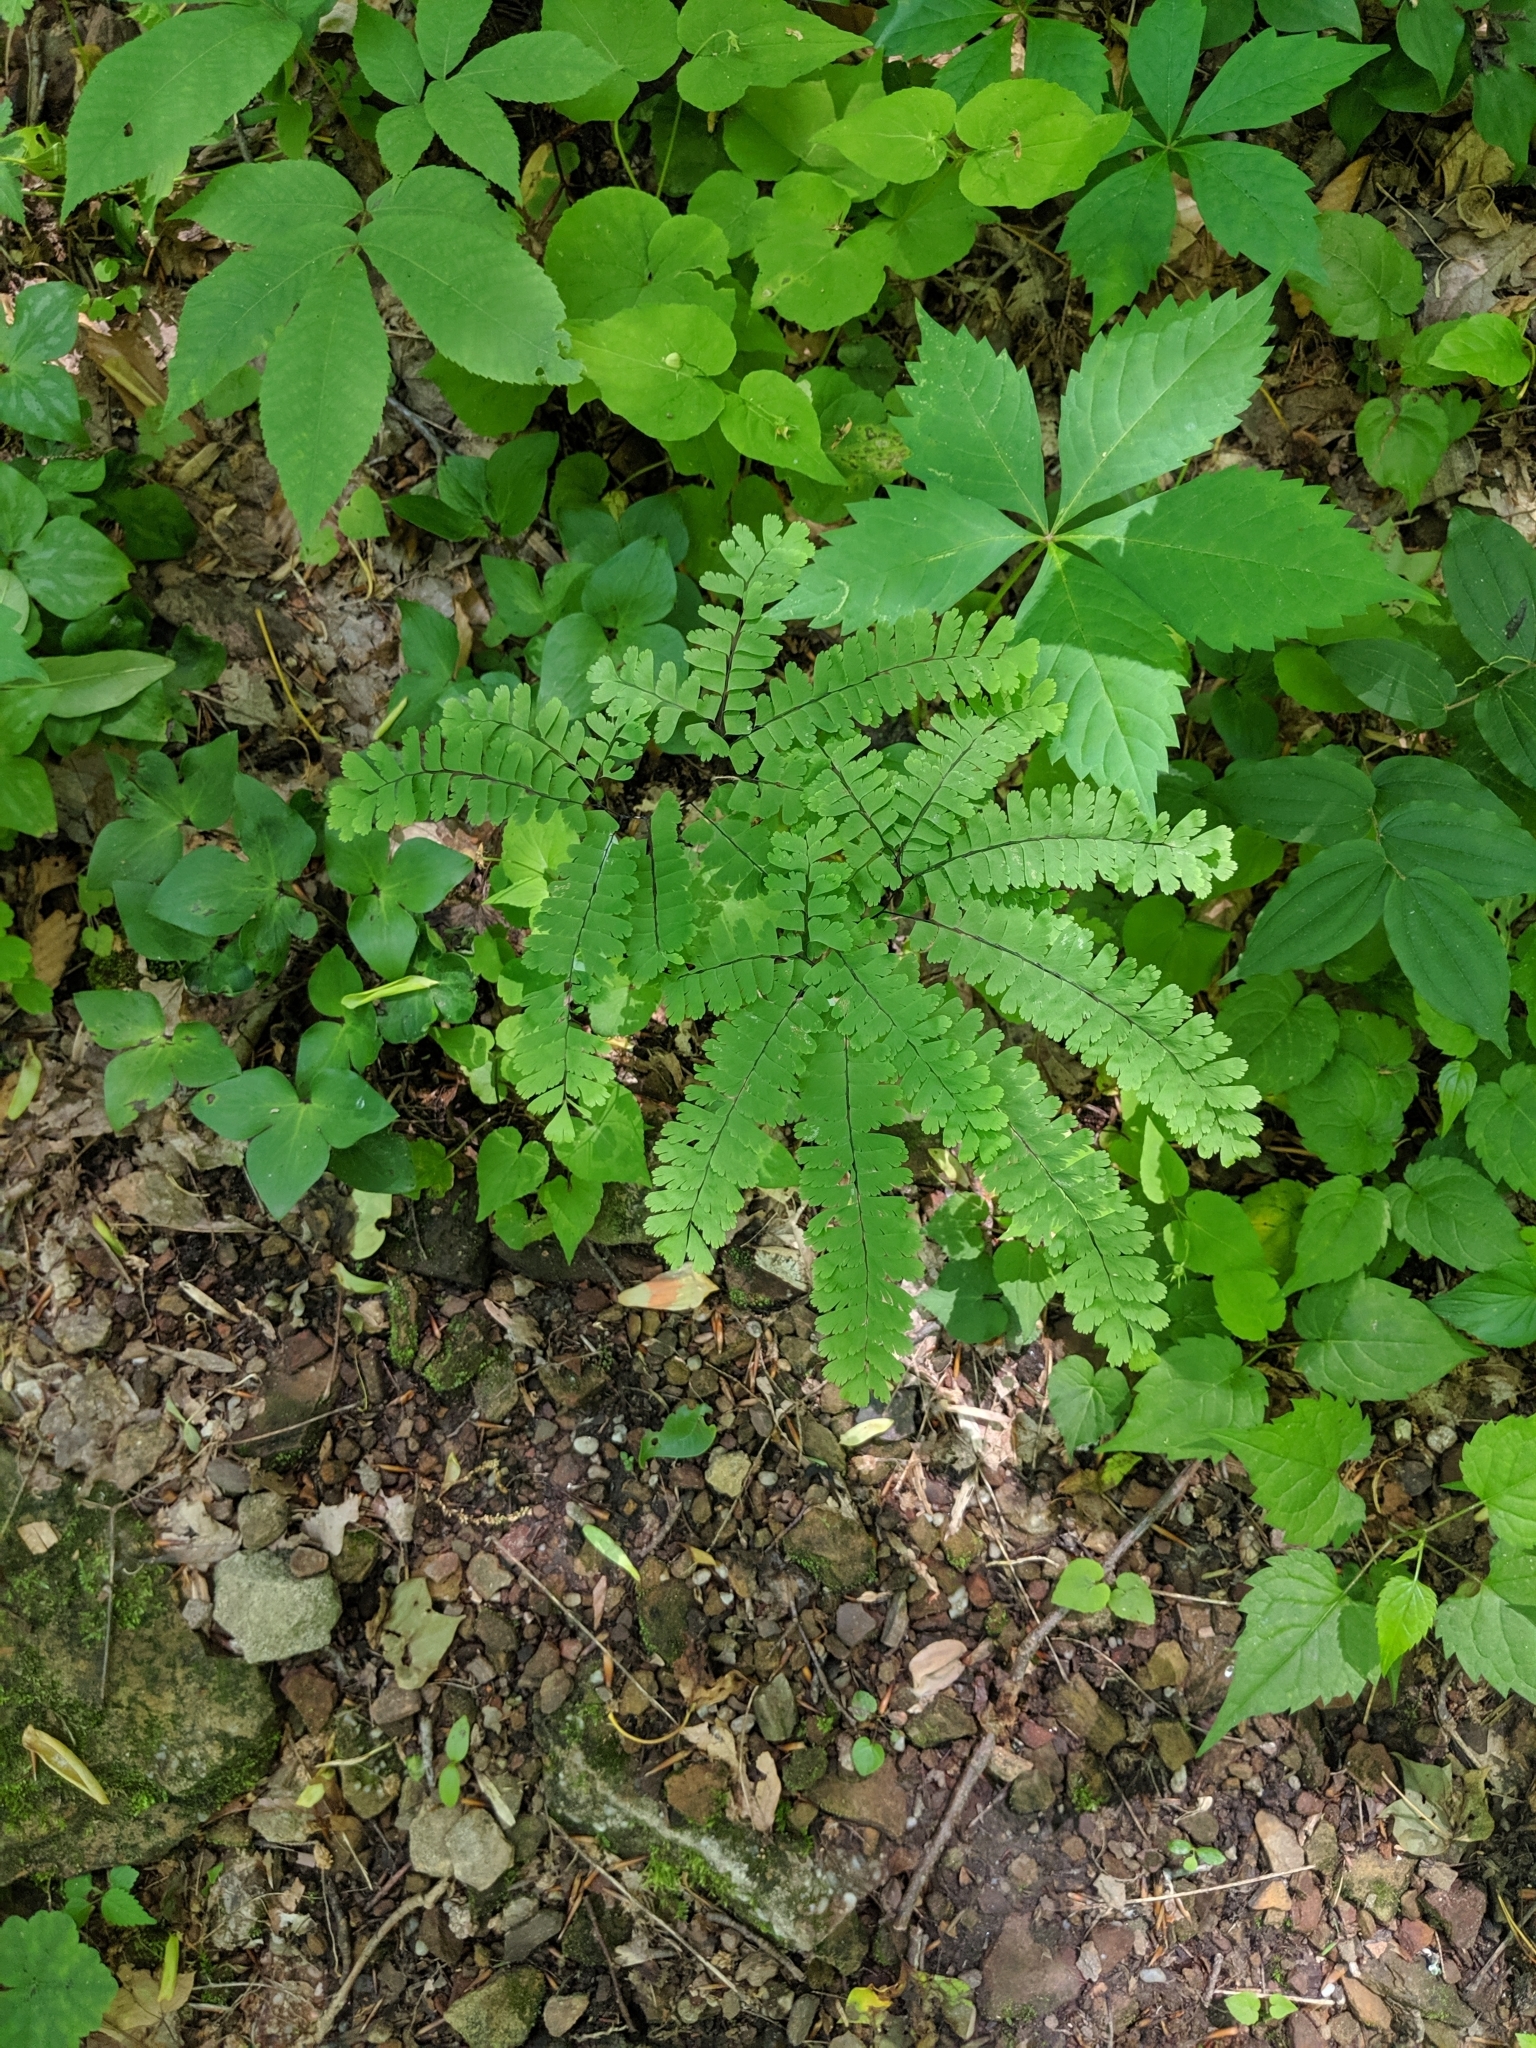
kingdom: Plantae
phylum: Tracheophyta
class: Polypodiopsida
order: Polypodiales
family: Pteridaceae
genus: Adiantum
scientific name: Adiantum pedatum
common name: Five-finger fern
